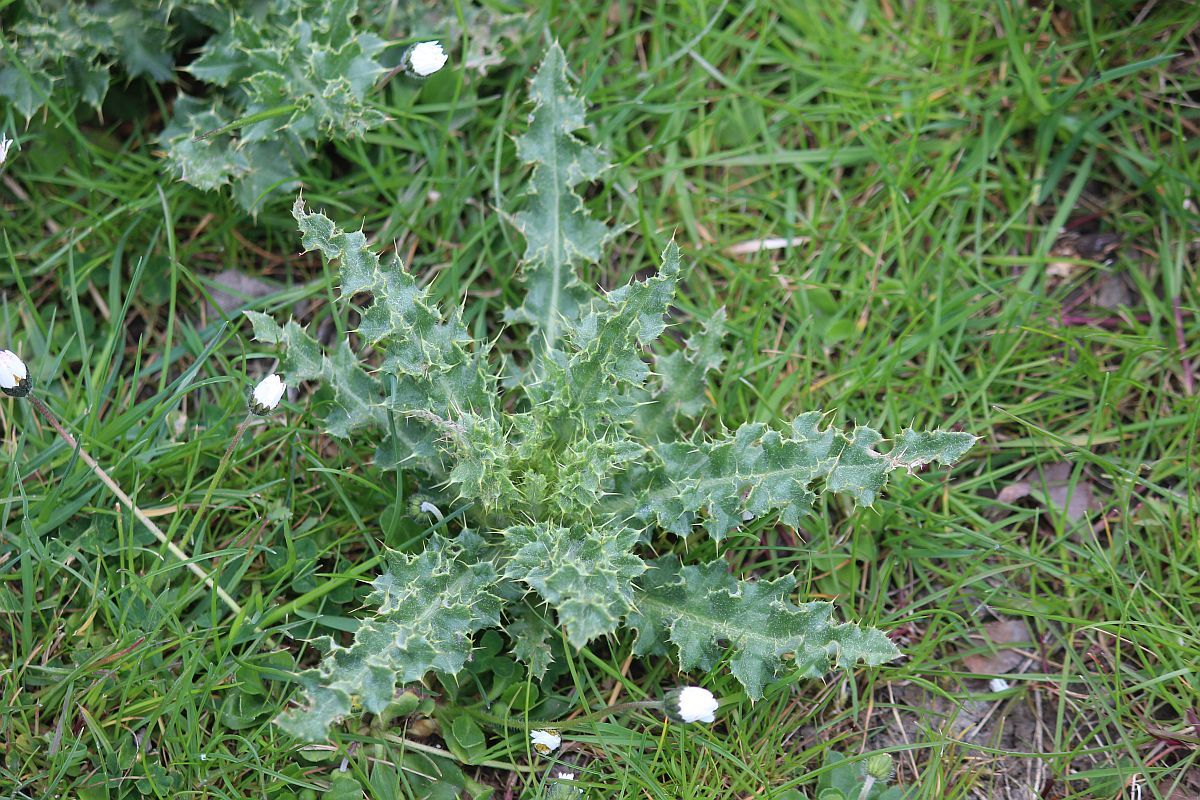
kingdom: Plantae
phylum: Tracheophyta
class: Magnoliopsida
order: Asterales
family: Asteraceae
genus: Cirsium
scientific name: Cirsium arvense
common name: Creeping thistle
